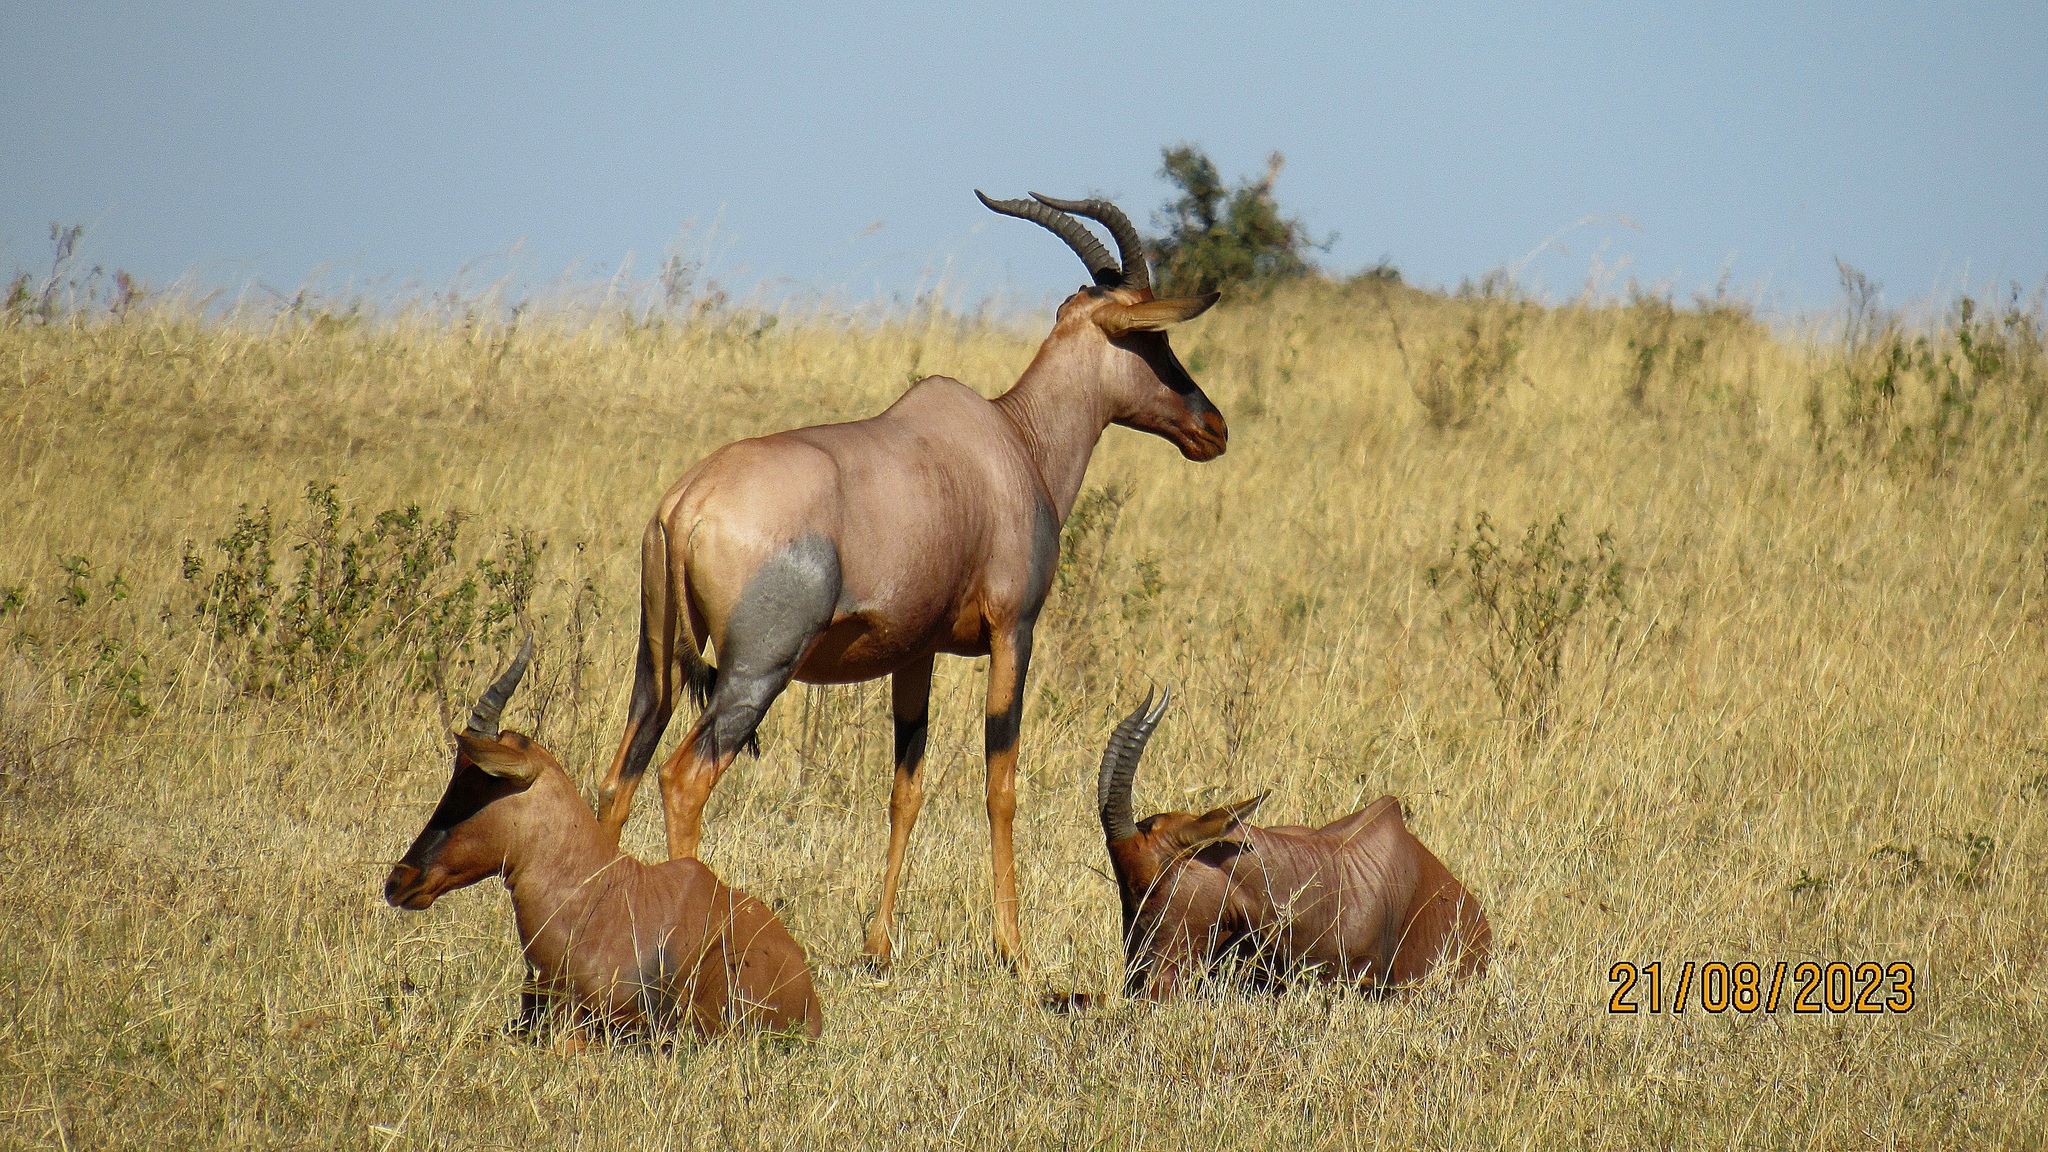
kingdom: Animalia
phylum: Chordata
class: Mammalia
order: Artiodactyla
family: Bovidae
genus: Damaliscus
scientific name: Damaliscus korrigum
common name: Topi
